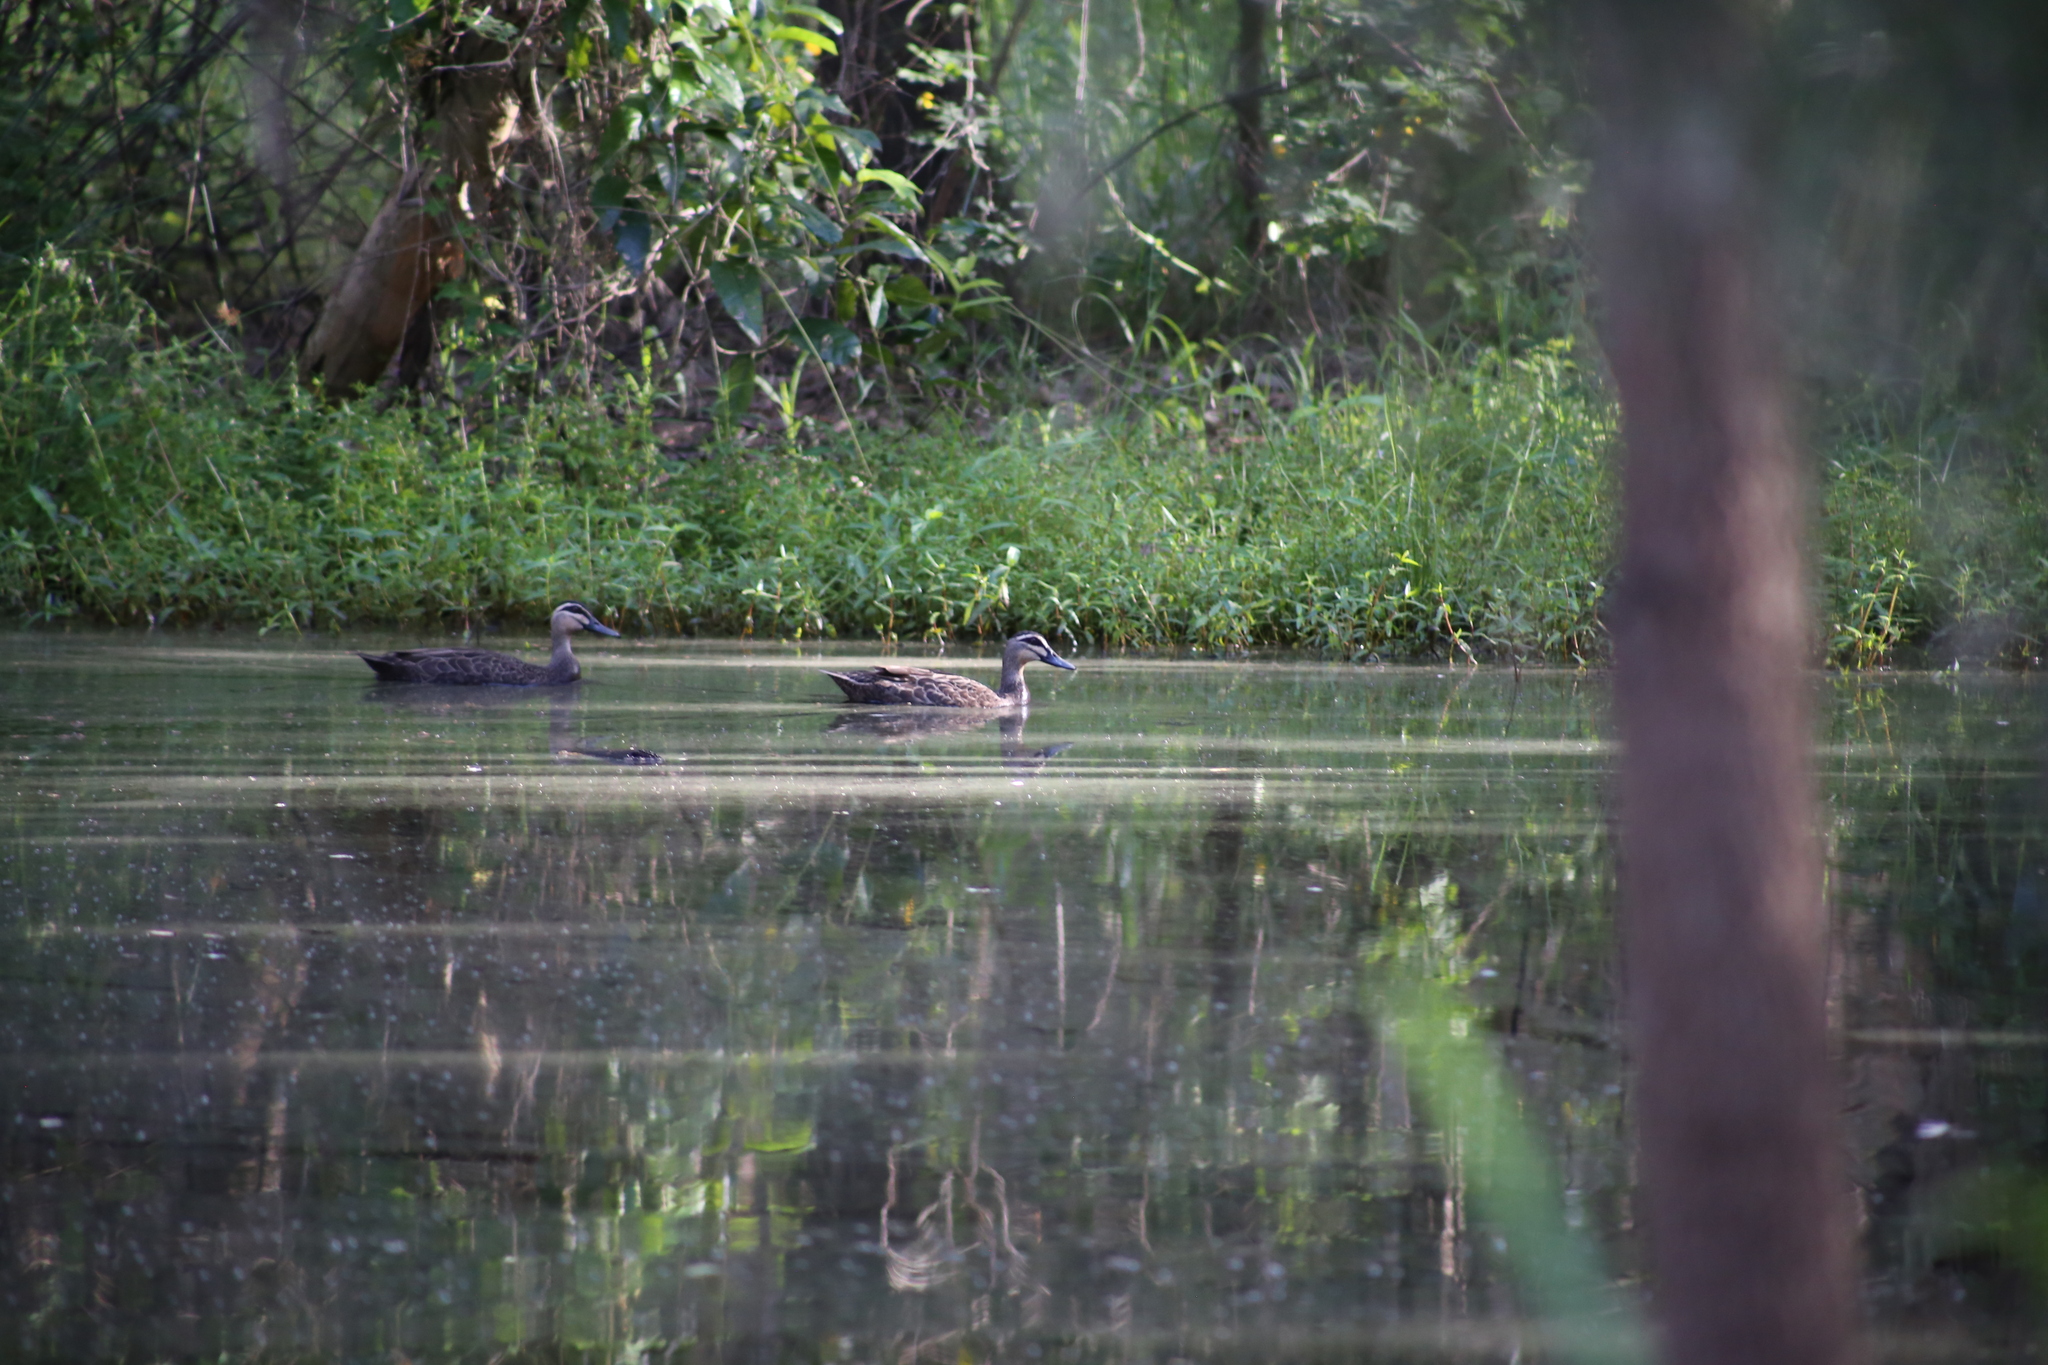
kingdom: Animalia
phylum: Chordata
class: Aves
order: Anseriformes
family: Anatidae
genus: Anas
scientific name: Anas superciliosa
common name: Pacific black duck
